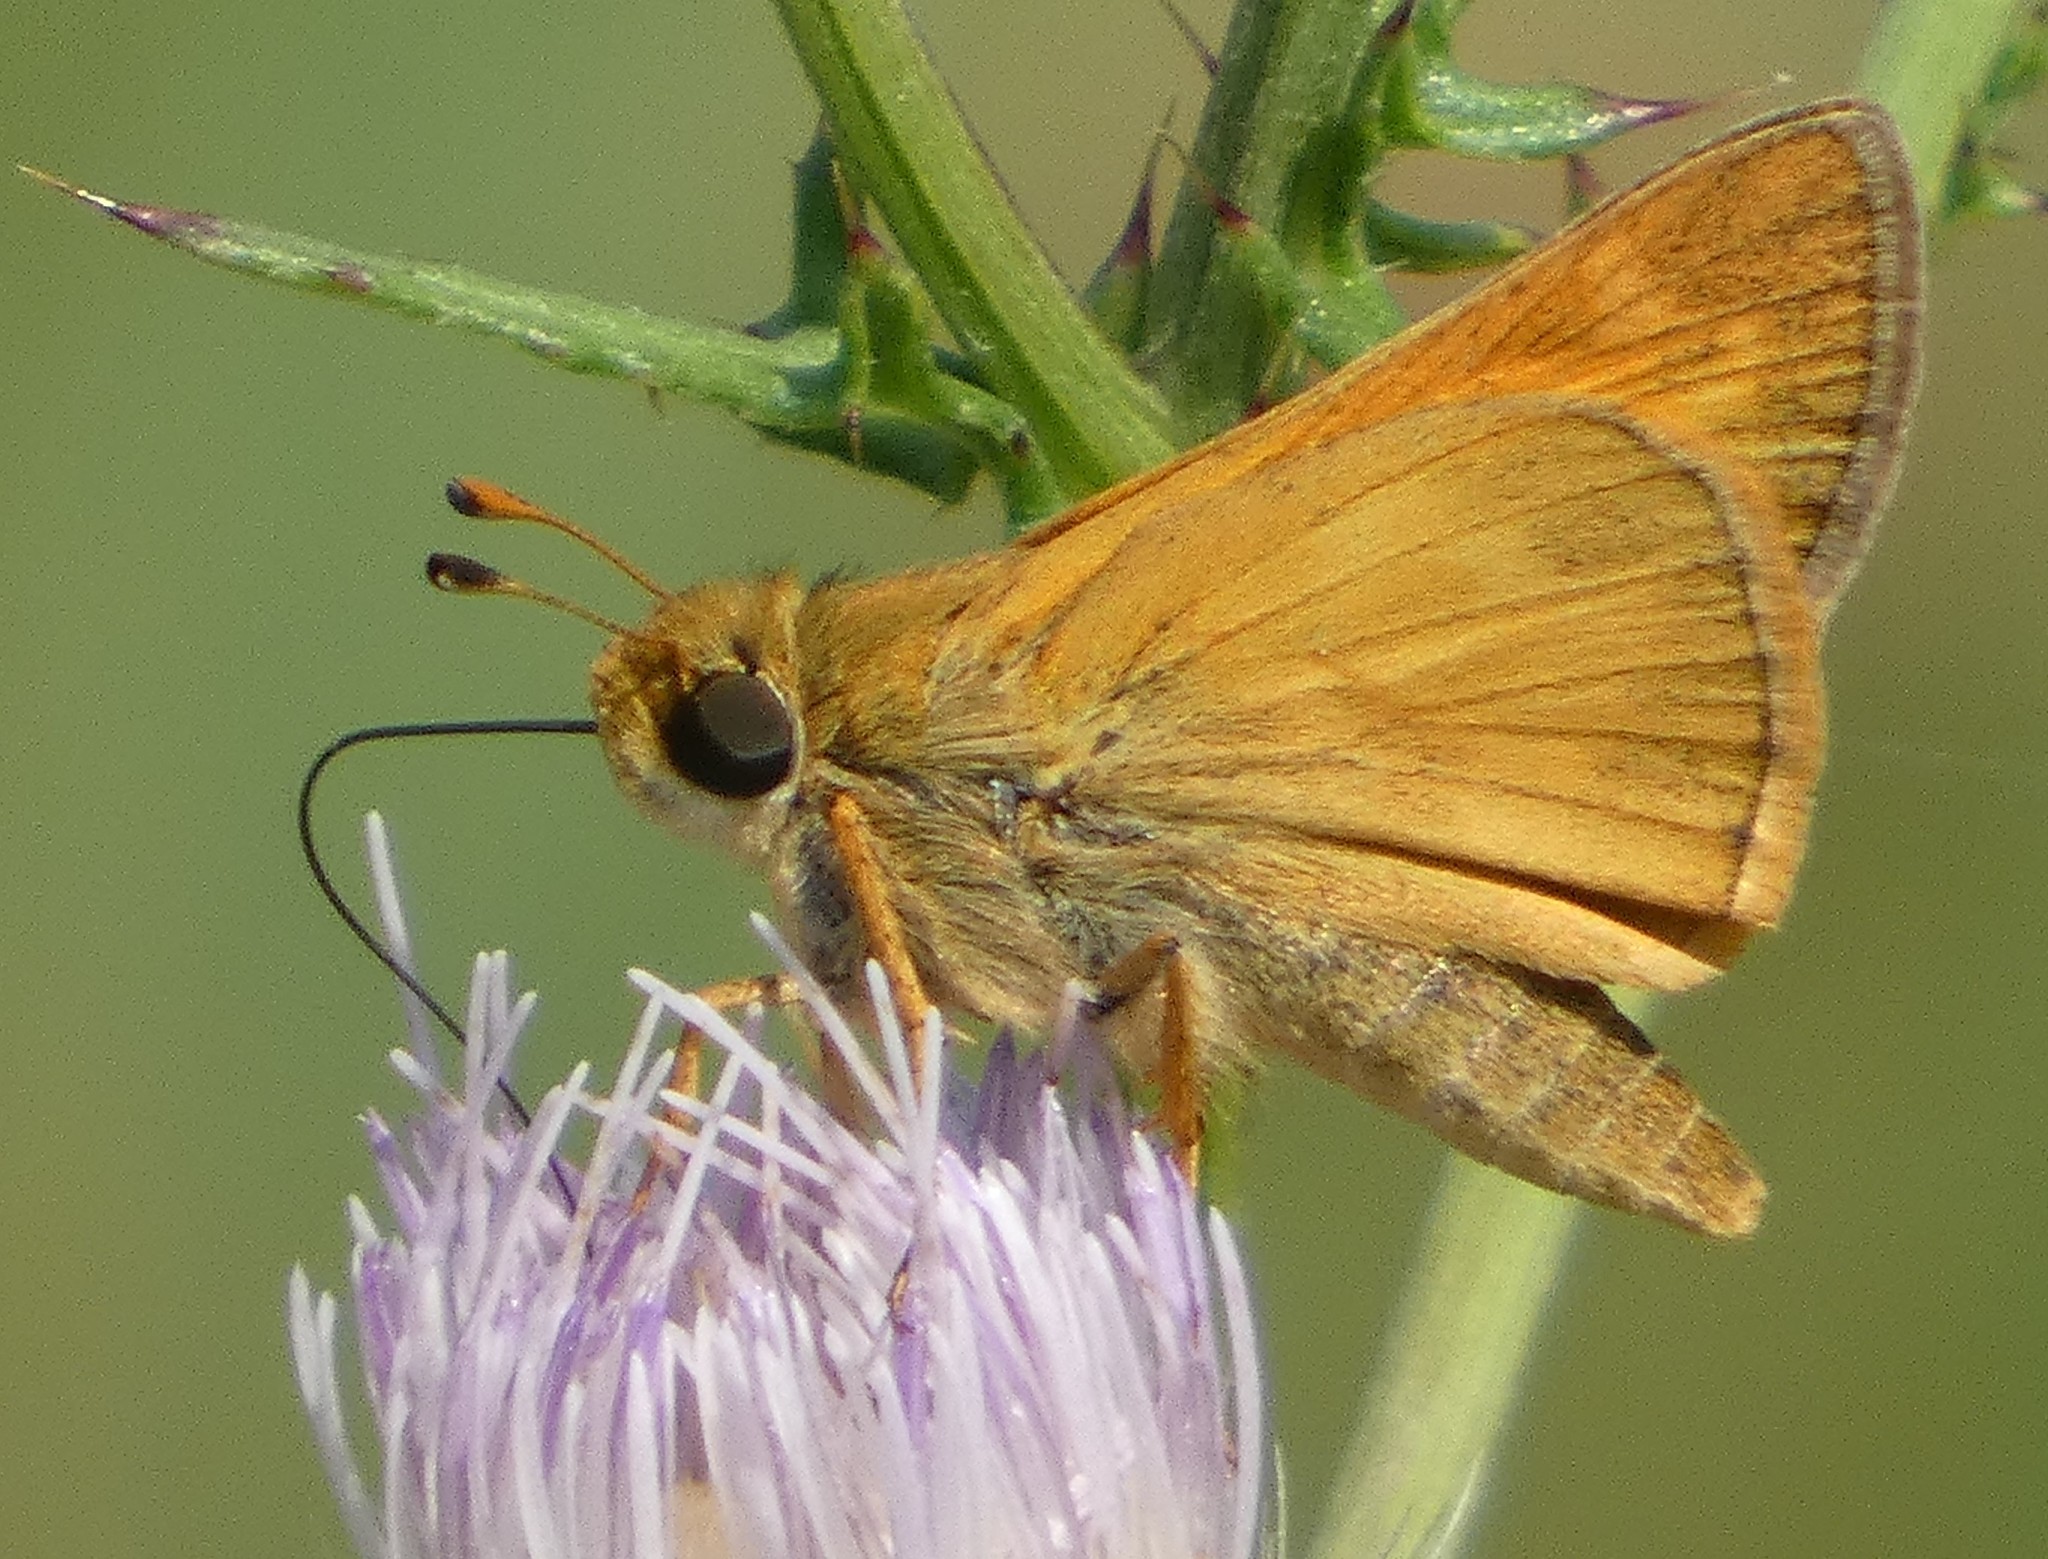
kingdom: Animalia
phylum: Arthropoda
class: Insecta
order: Lepidoptera
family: Hesperiidae
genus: Atalopedes
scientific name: Atalopedes
